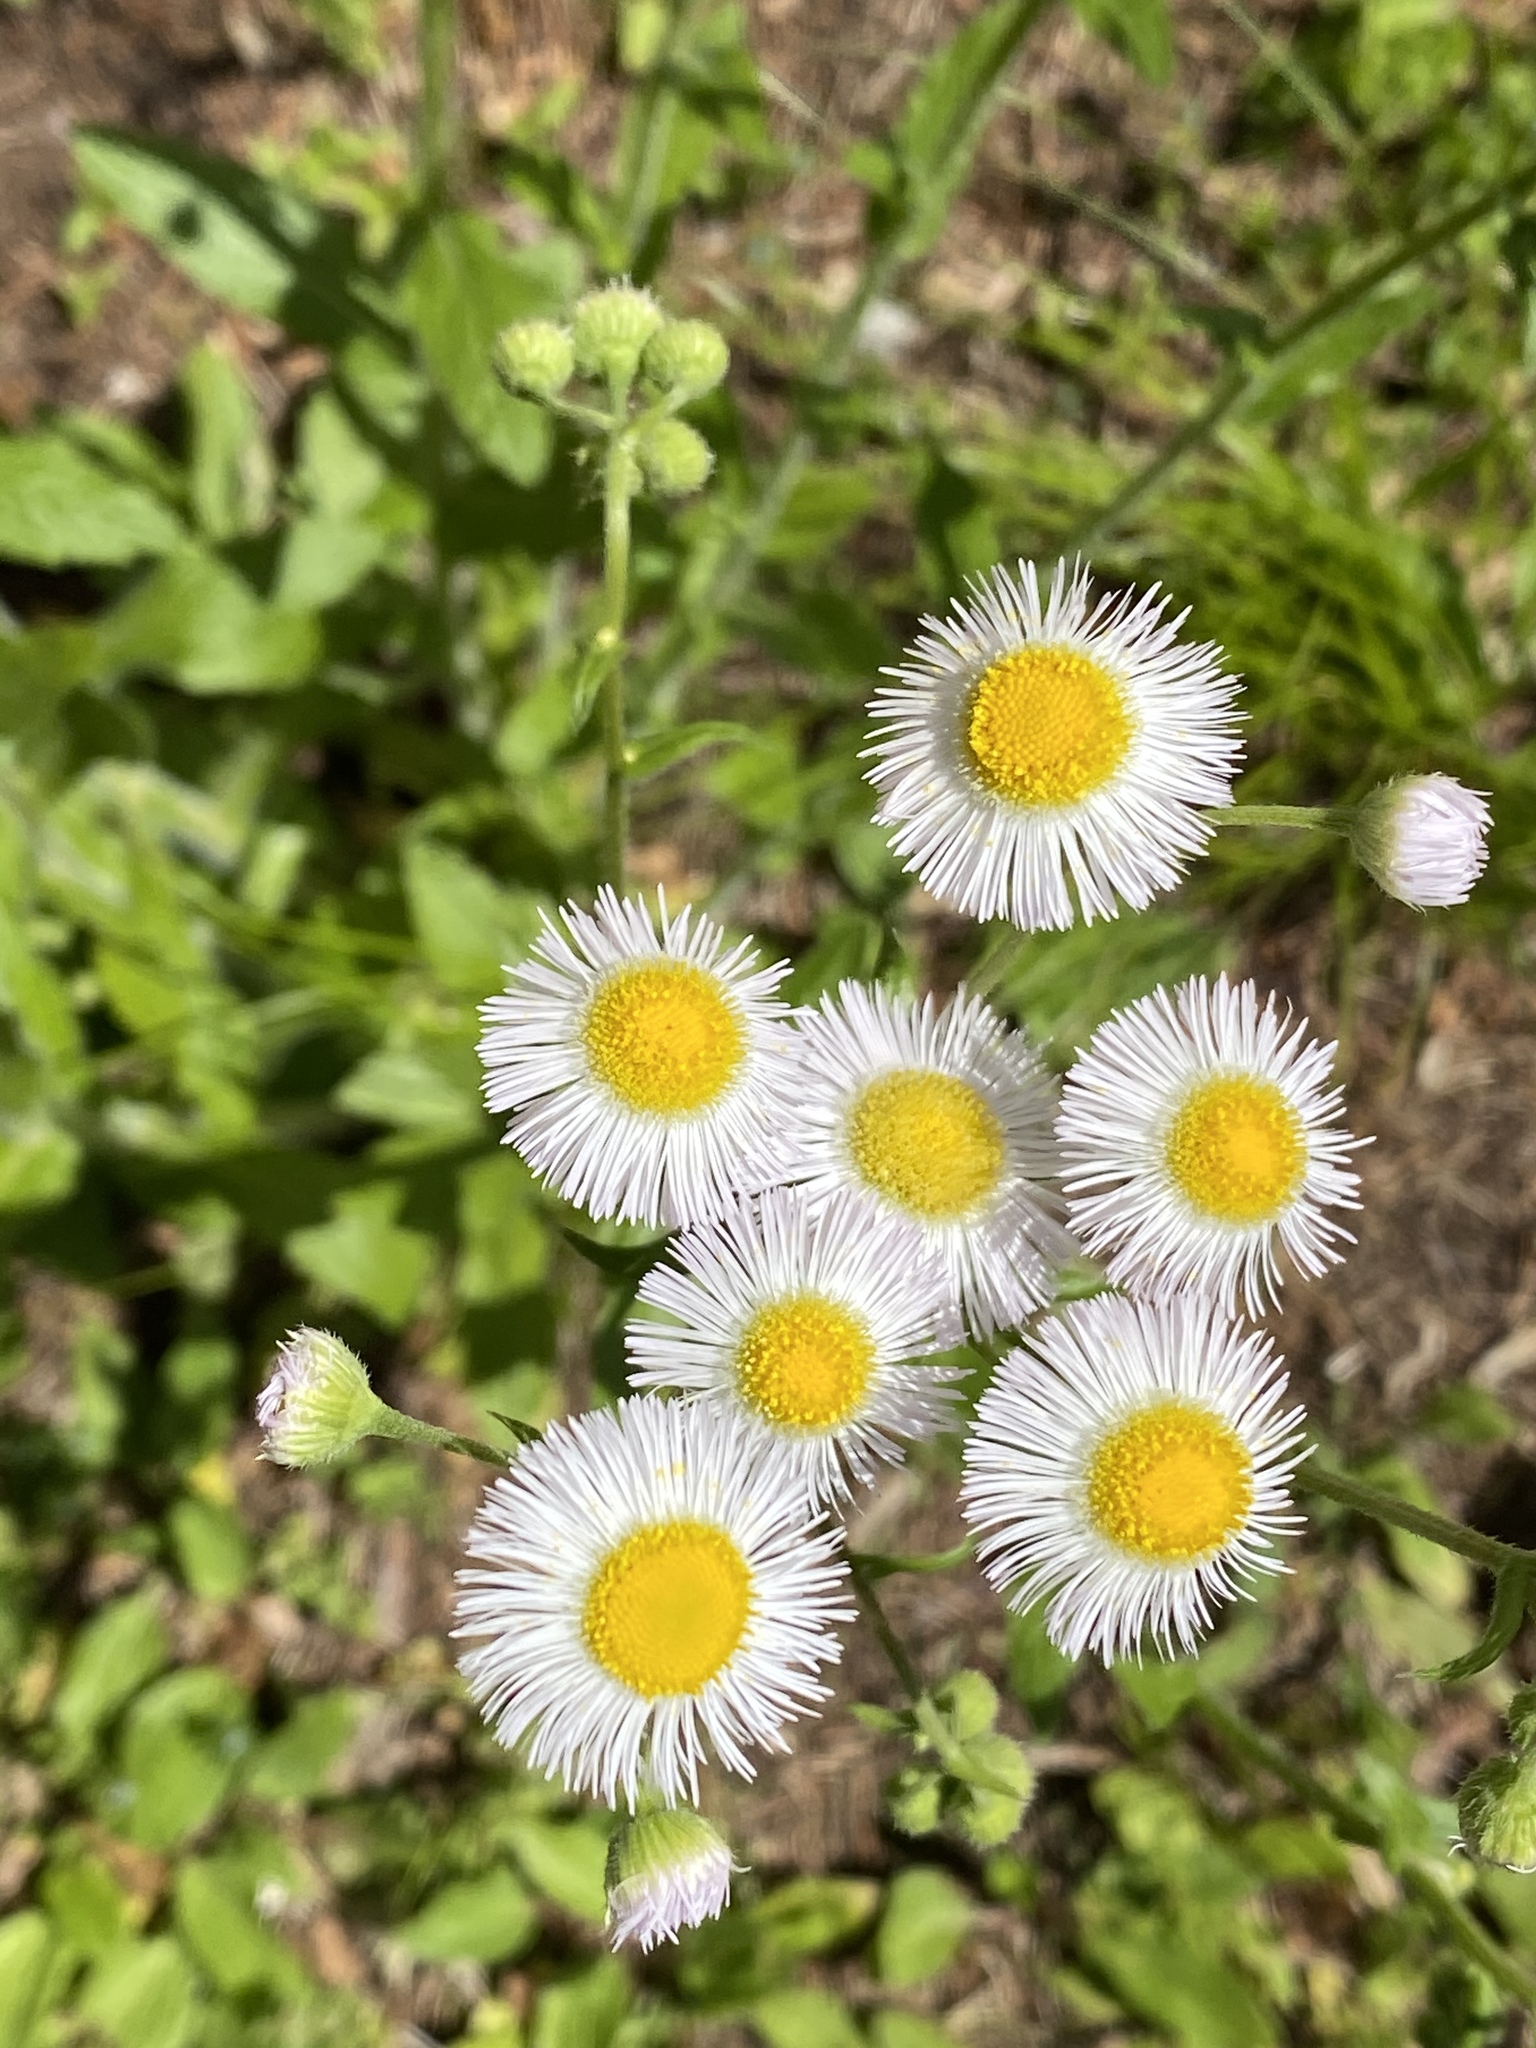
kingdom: Plantae
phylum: Tracheophyta
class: Magnoliopsida
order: Asterales
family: Asteraceae
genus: Erigeron
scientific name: Erigeron philadelphicus
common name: Robin's-plantain
